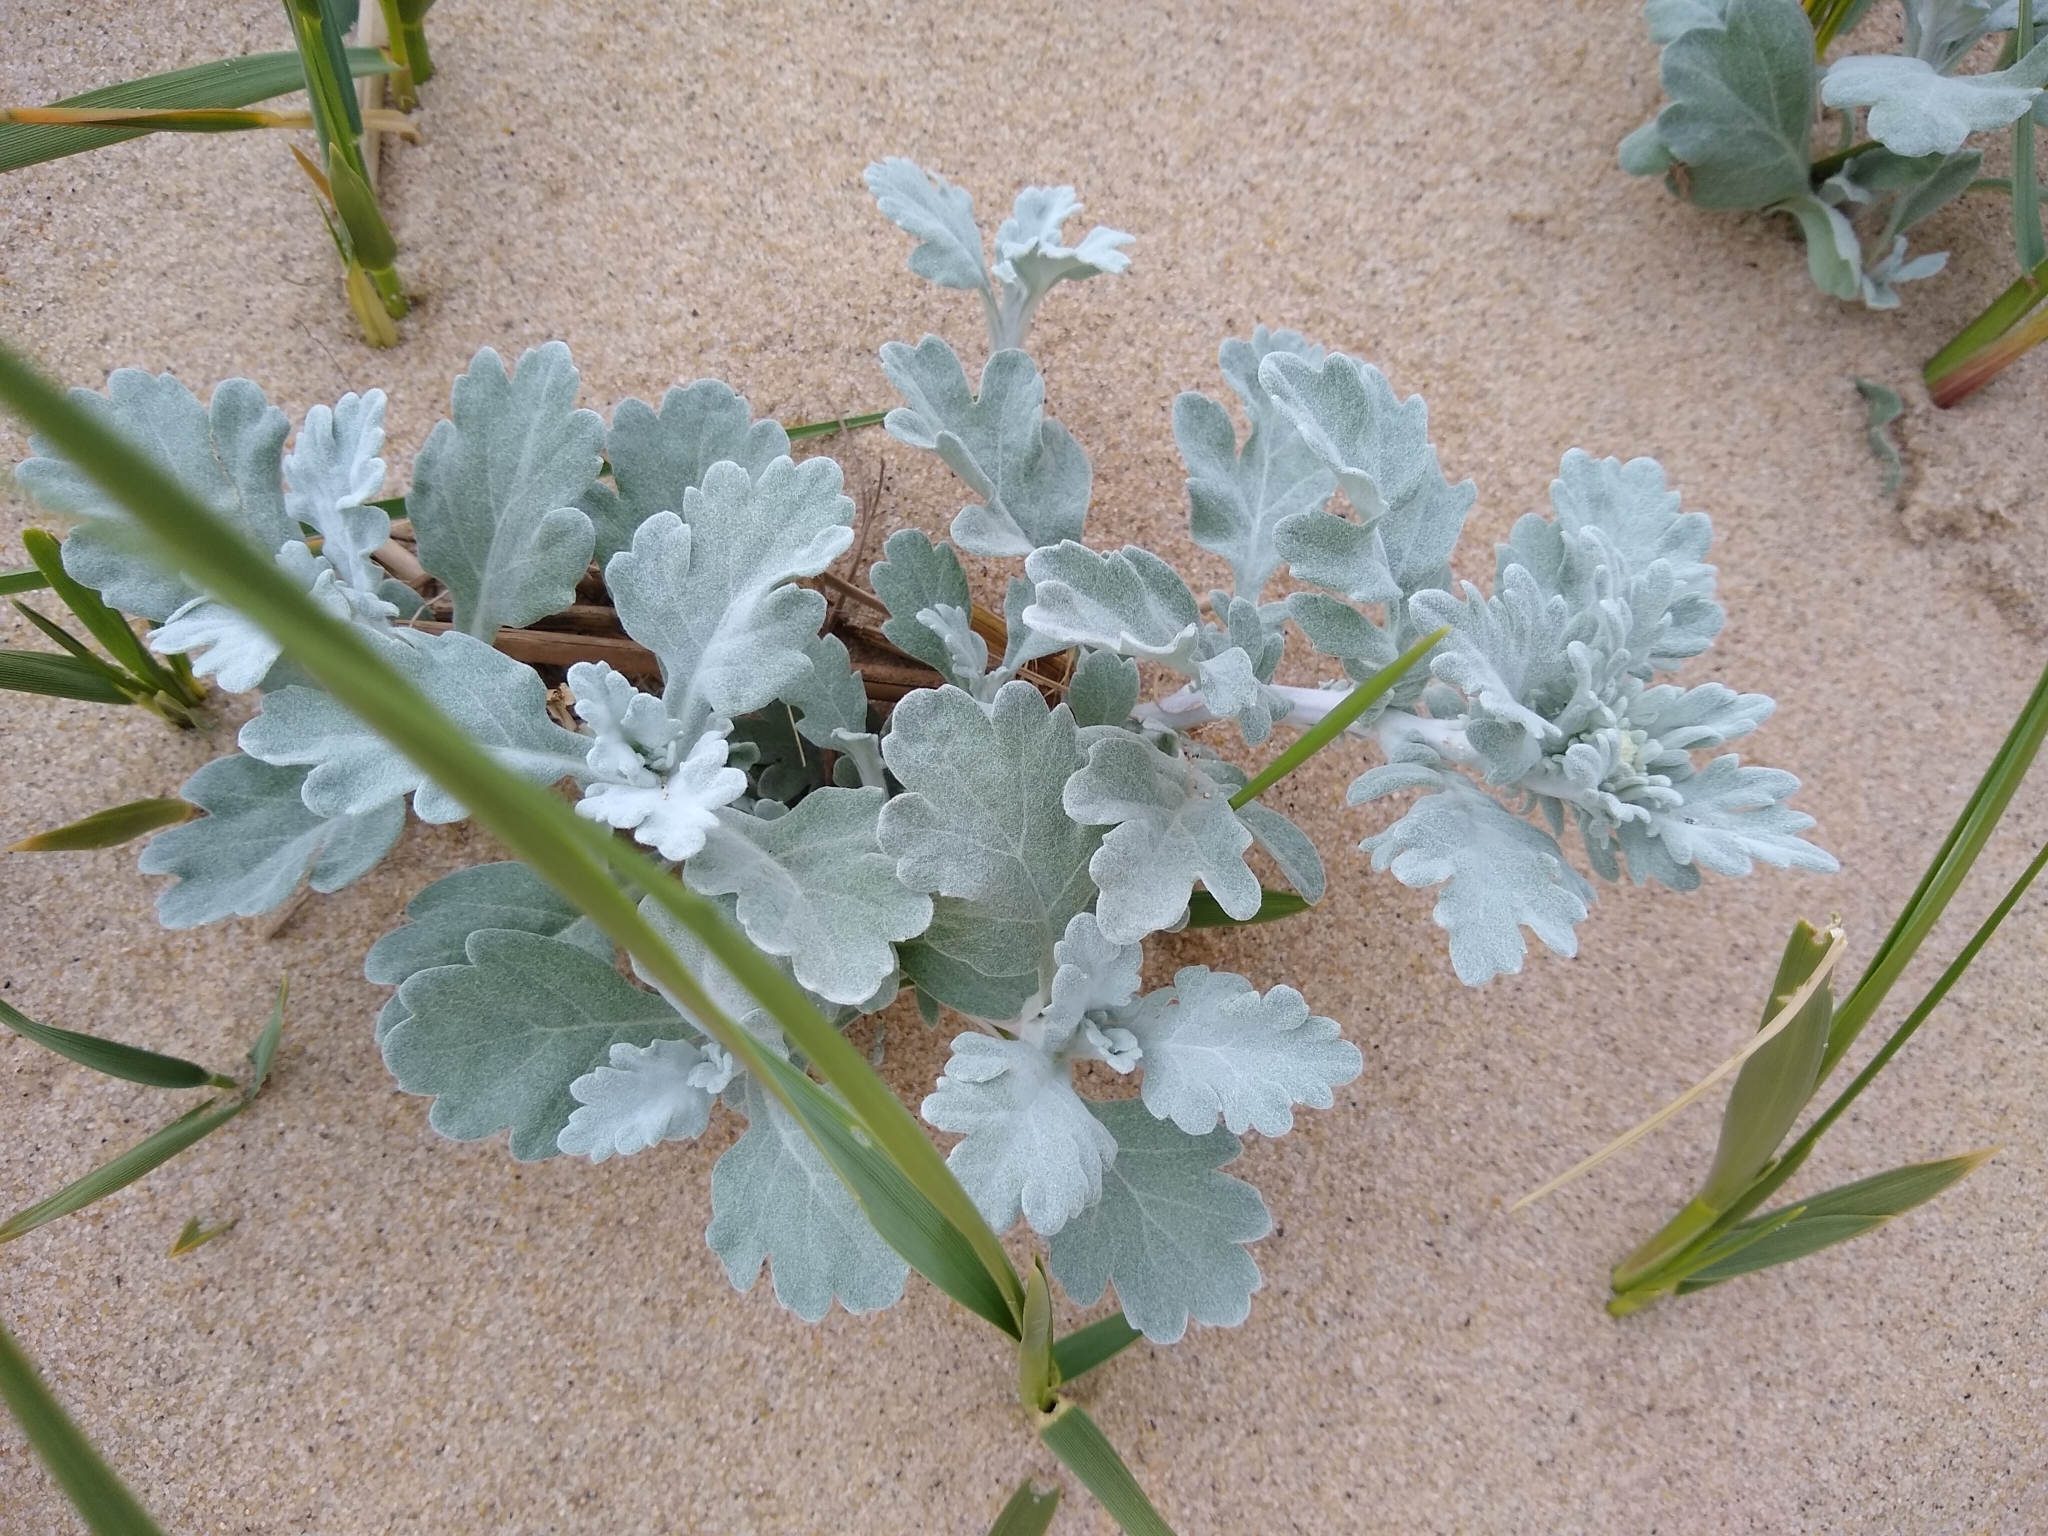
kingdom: Plantae
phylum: Tracheophyta
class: Magnoliopsida
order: Asterales
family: Asteraceae
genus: Artemisia
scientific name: Artemisia stelleriana
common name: Beach wormwood
